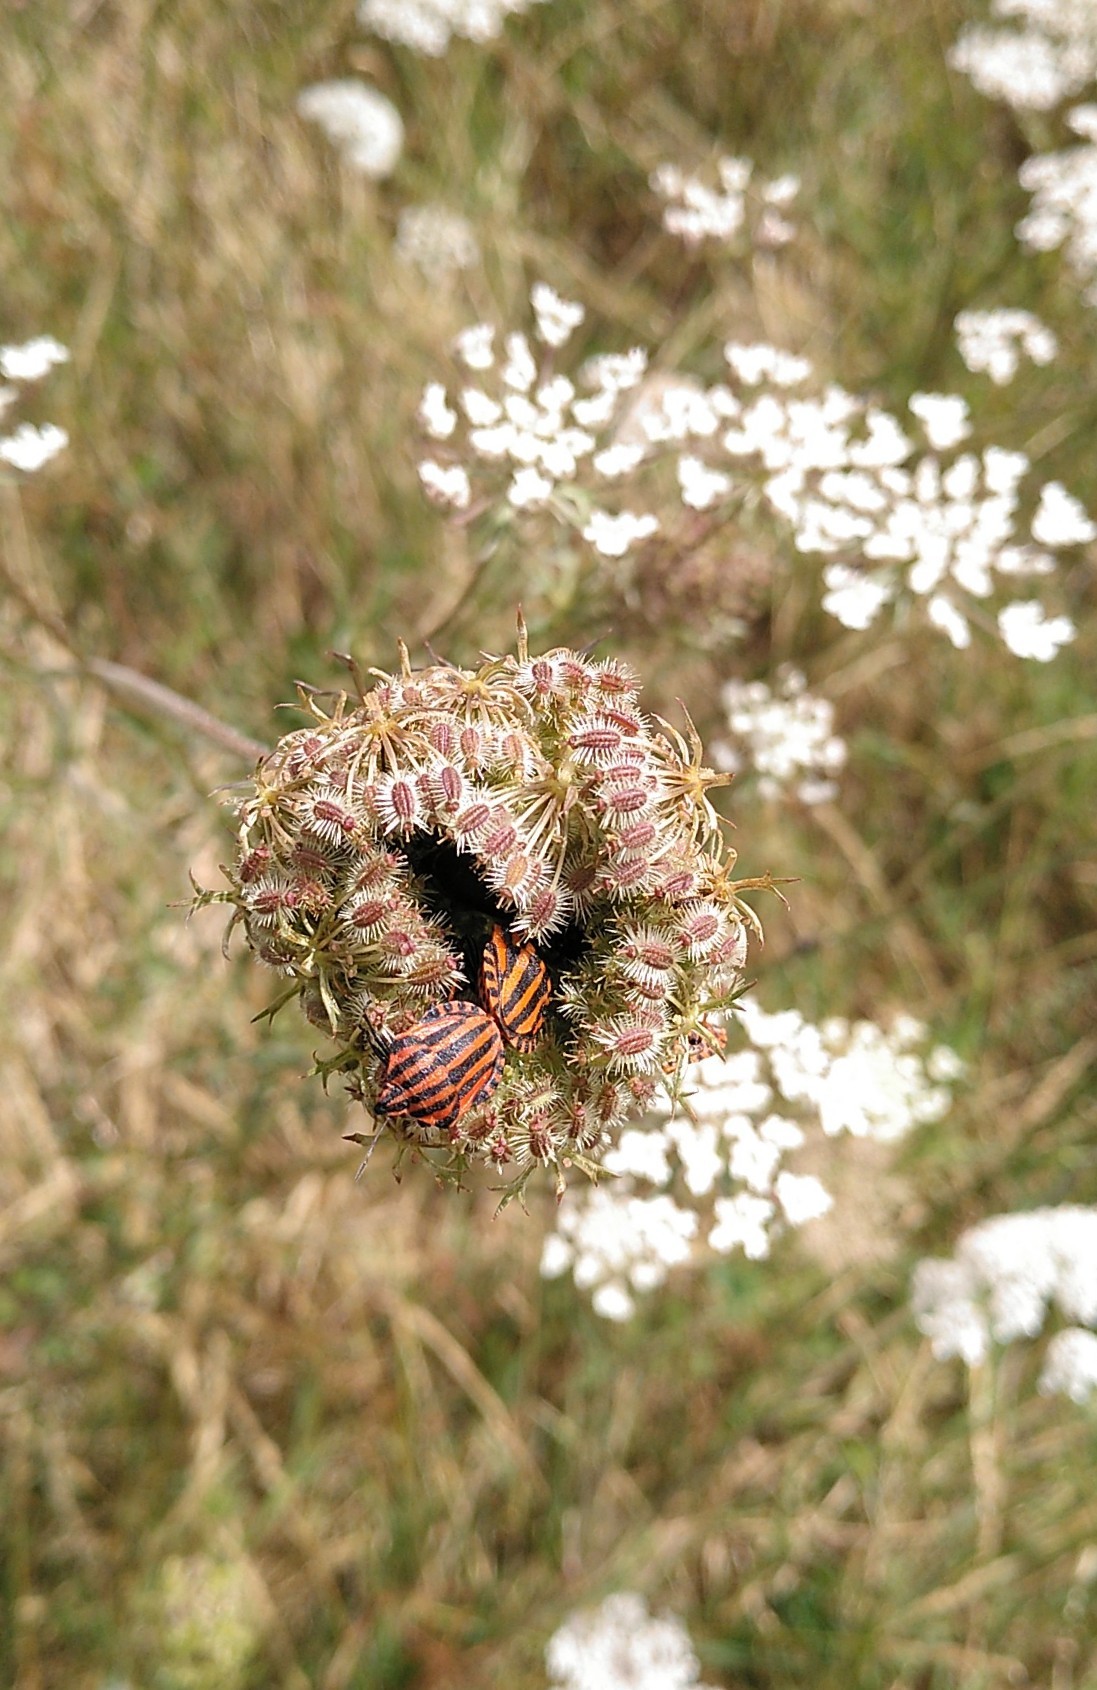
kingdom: Animalia
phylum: Arthropoda
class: Insecta
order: Hemiptera
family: Pentatomidae
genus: Graphosoma
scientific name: Graphosoma italicum
